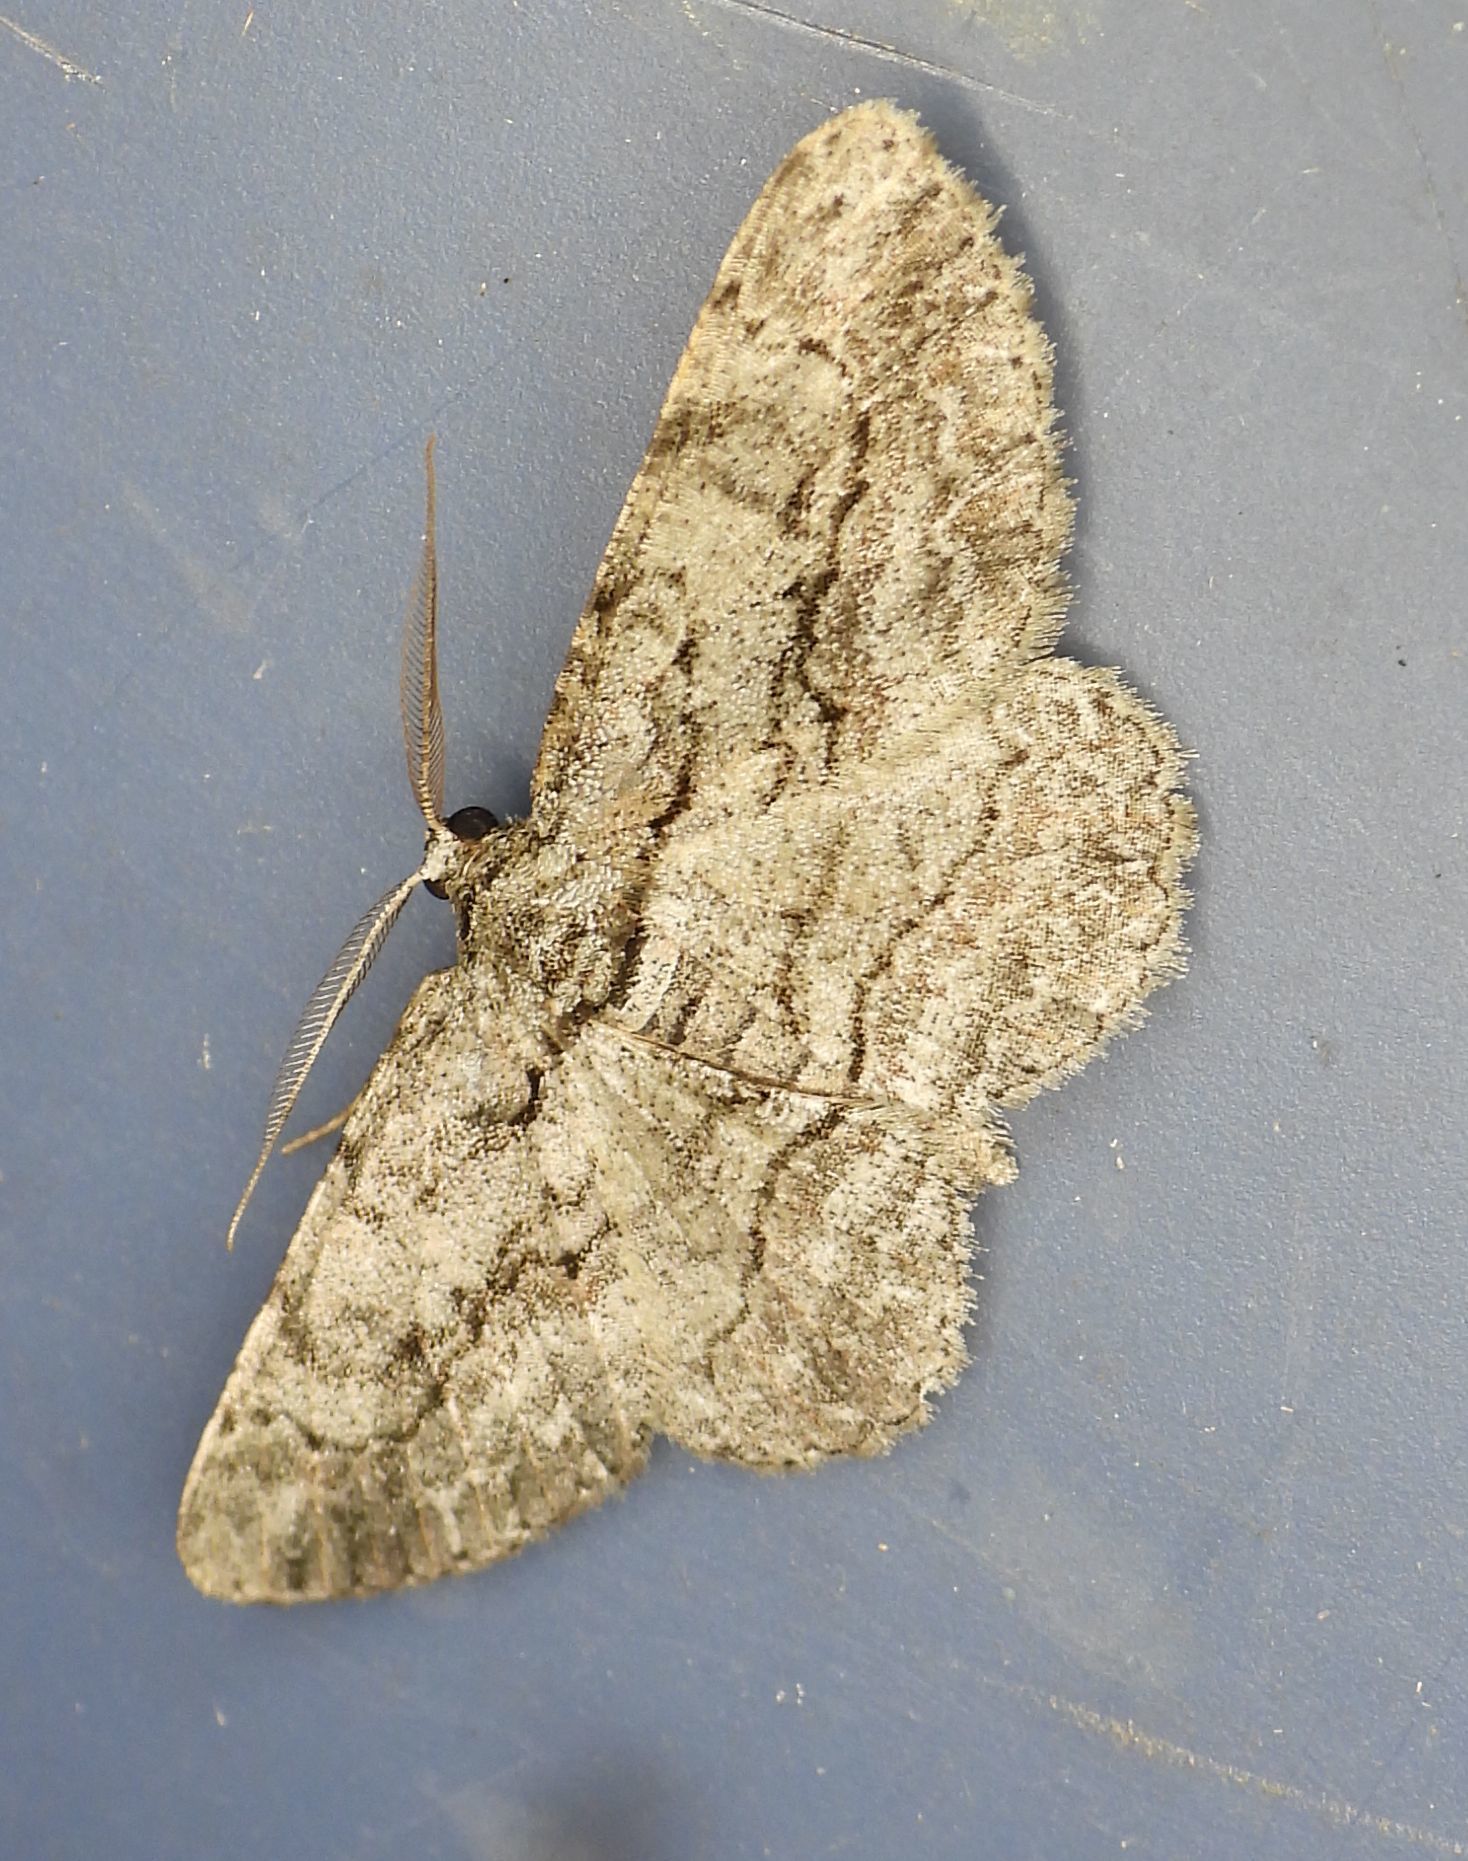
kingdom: Animalia
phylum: Arthropoda
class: Insecta
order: Lepidoptera
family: Geometridae
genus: Anavitrinella
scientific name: Anavitrinella pampinaria
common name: Common gray
